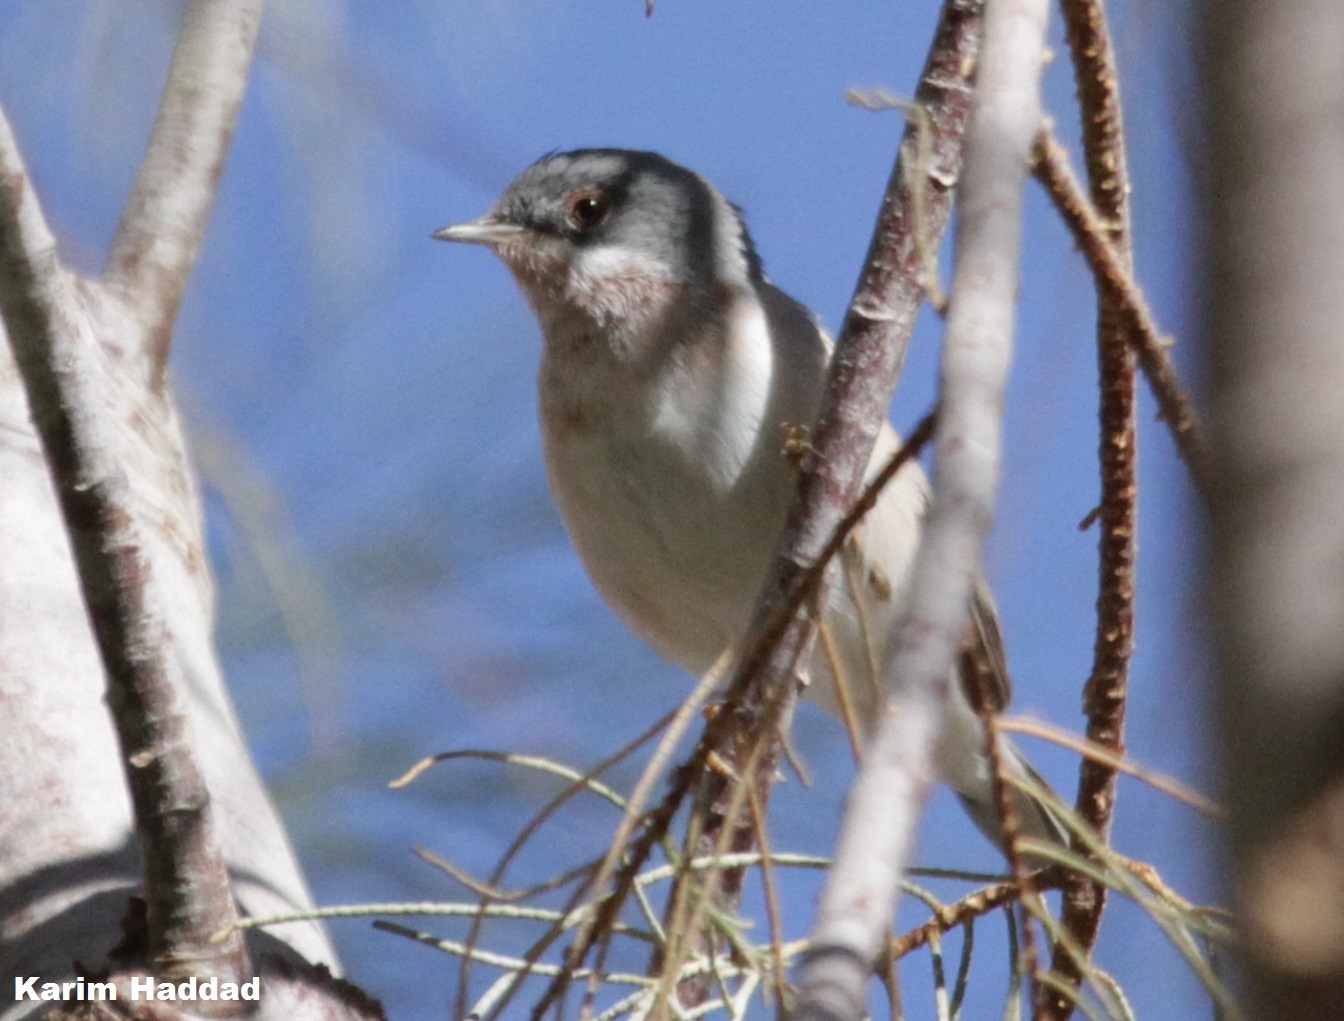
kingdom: Animalia
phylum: Chordata
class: Aves
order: Passeriformes
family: Sylviidae
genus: Curruca
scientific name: Curruca cantillans
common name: Subalpine warbler
